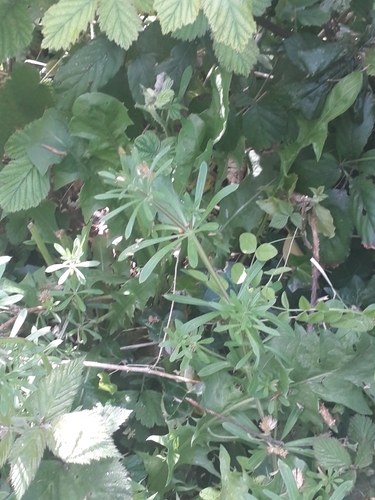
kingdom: Plantae
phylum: Tracheophyta
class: Magnoliopsida
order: Gentianales
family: Rubiaceae
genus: Galium
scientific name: Galium aparine
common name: Cleavers
